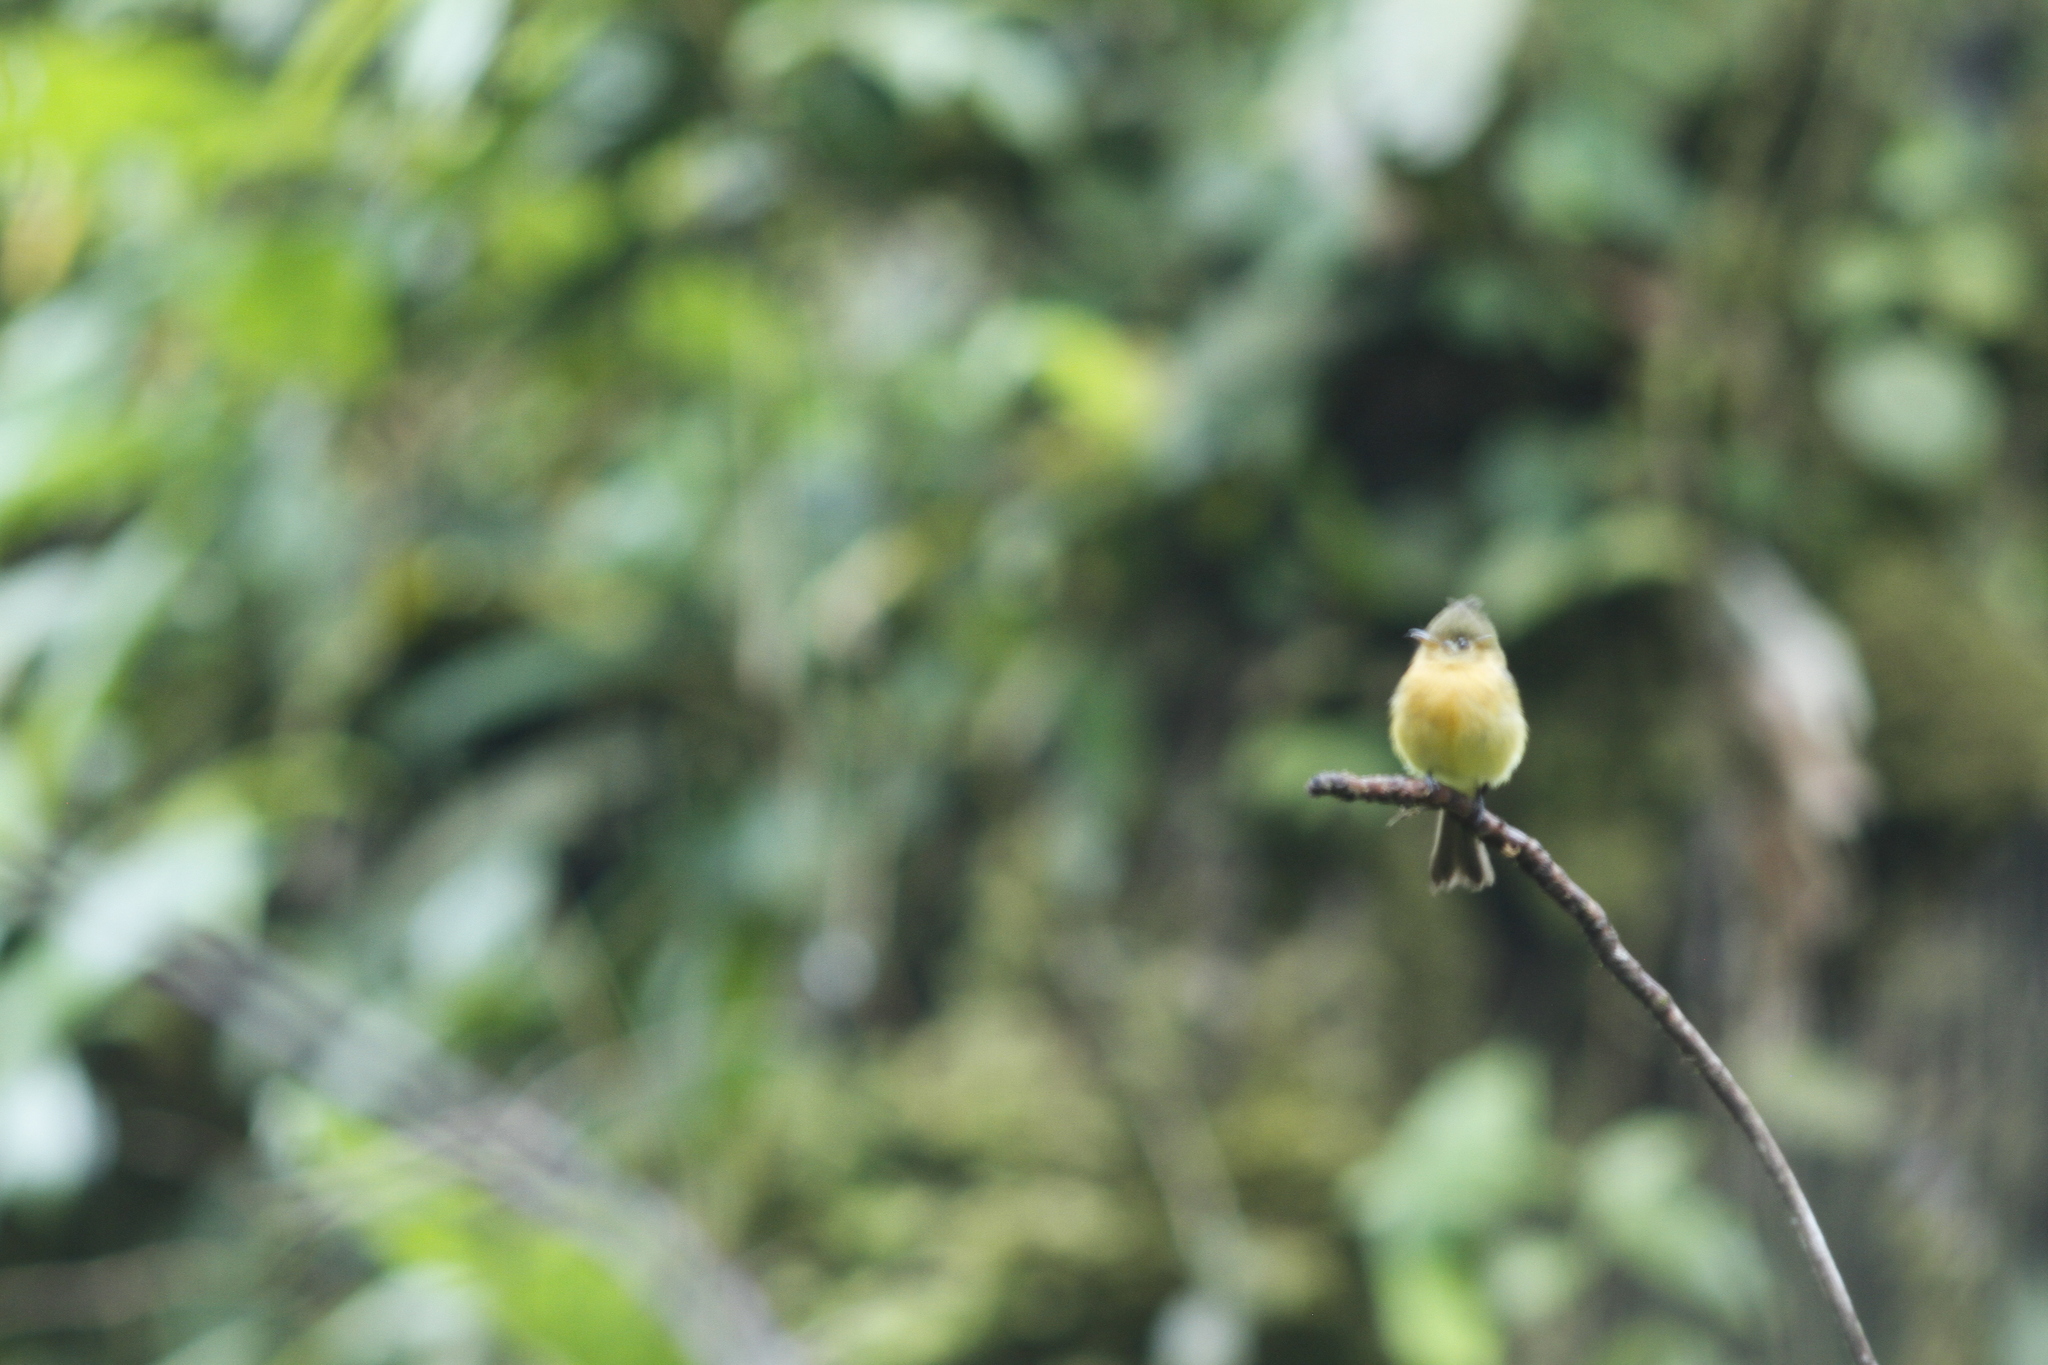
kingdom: Animalia
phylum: Chordata
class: Aves
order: Passeriformes
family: Tyrannidae
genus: Mitrephanes
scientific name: Mitrephanes phaeocercus
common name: Northern tufted flycatcher
